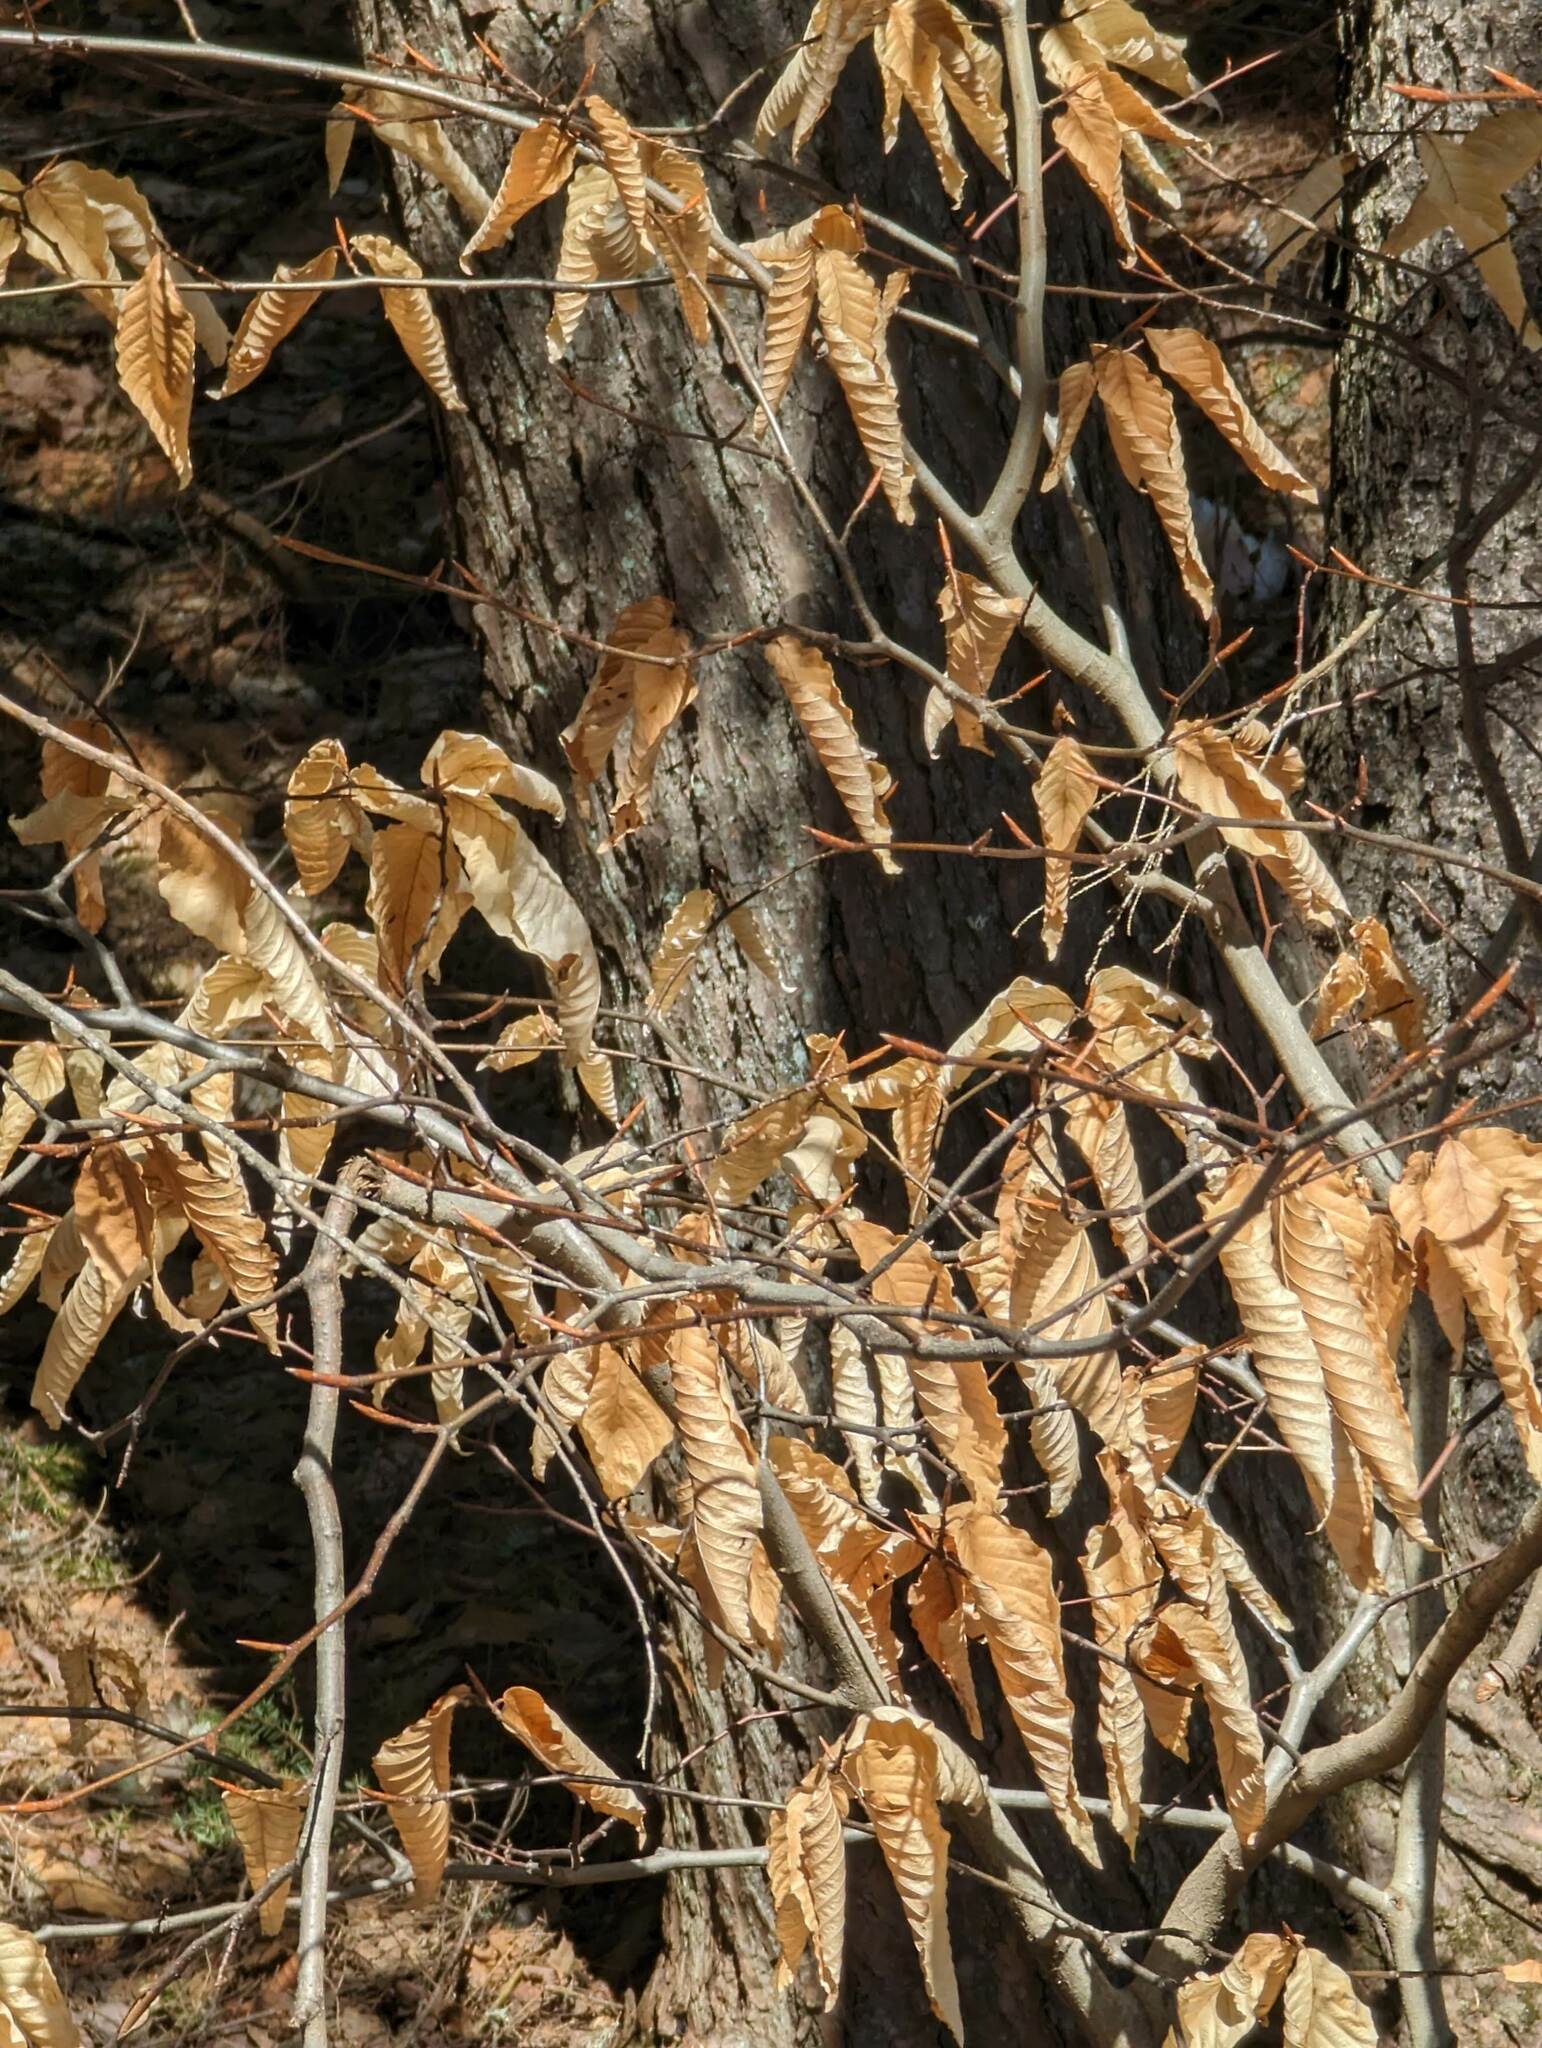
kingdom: Plantae
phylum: Tracheophyta
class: Magnoliopsida
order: Fagales
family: Fagaceae
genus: Fagus
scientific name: Fagus grandifolia
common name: American beech
